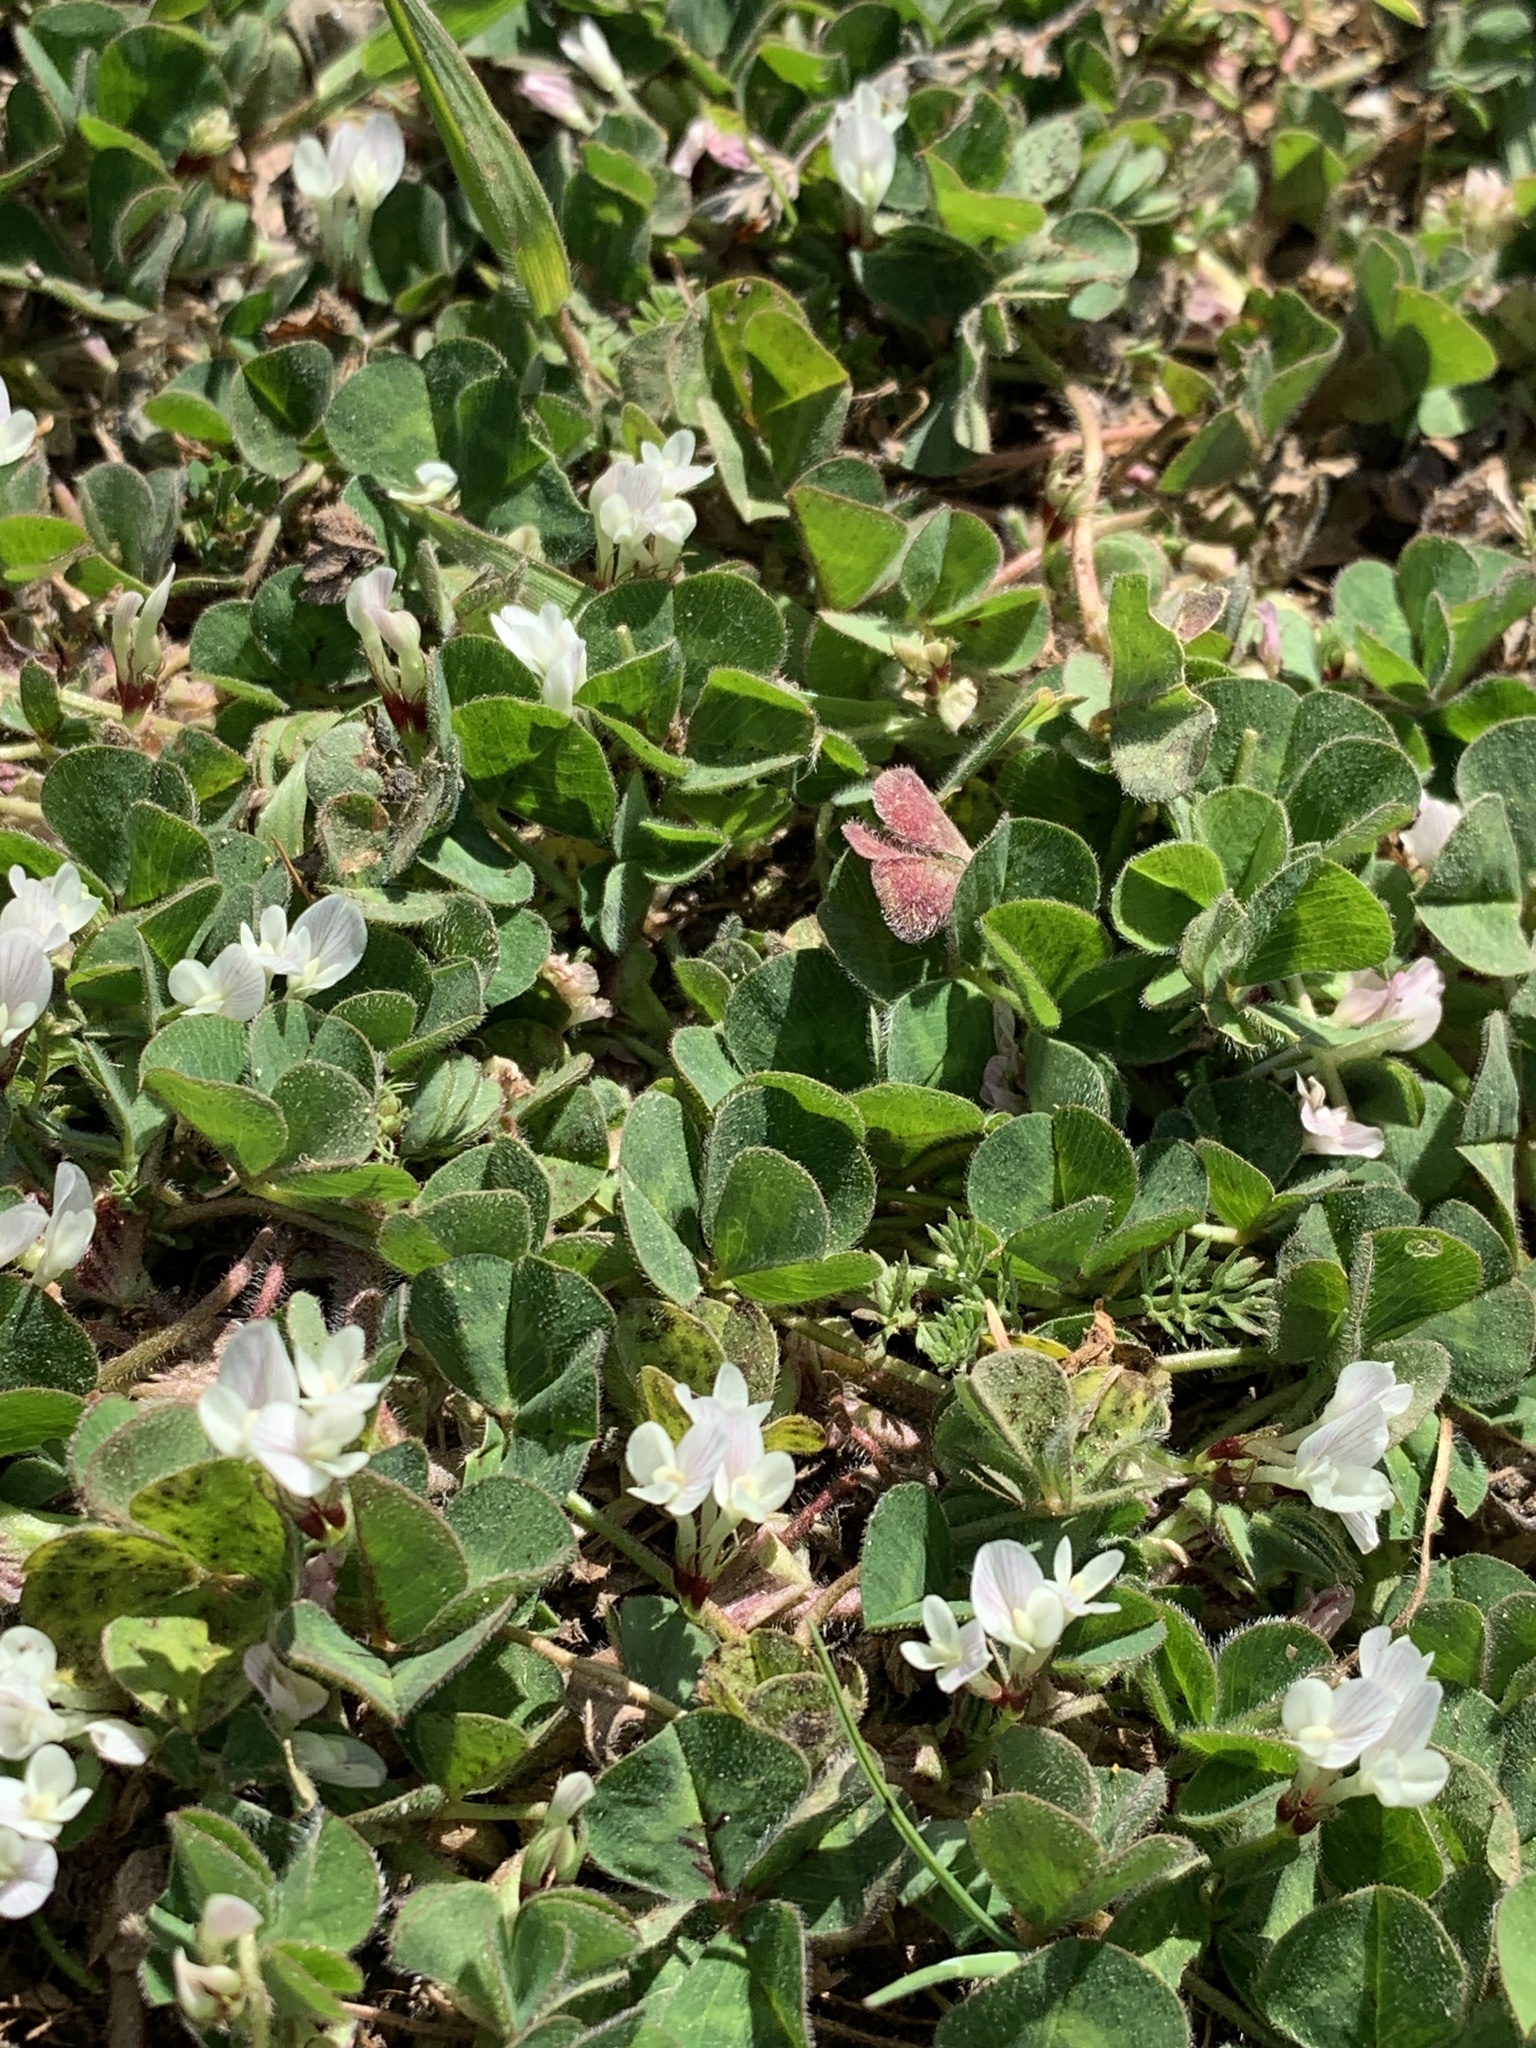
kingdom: Plantae
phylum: Tracheophyta
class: Magnoliopsida
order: Fabales
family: Fabaceae
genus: Trifolium
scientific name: Trifolium subterraneum
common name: Subterranean clover
